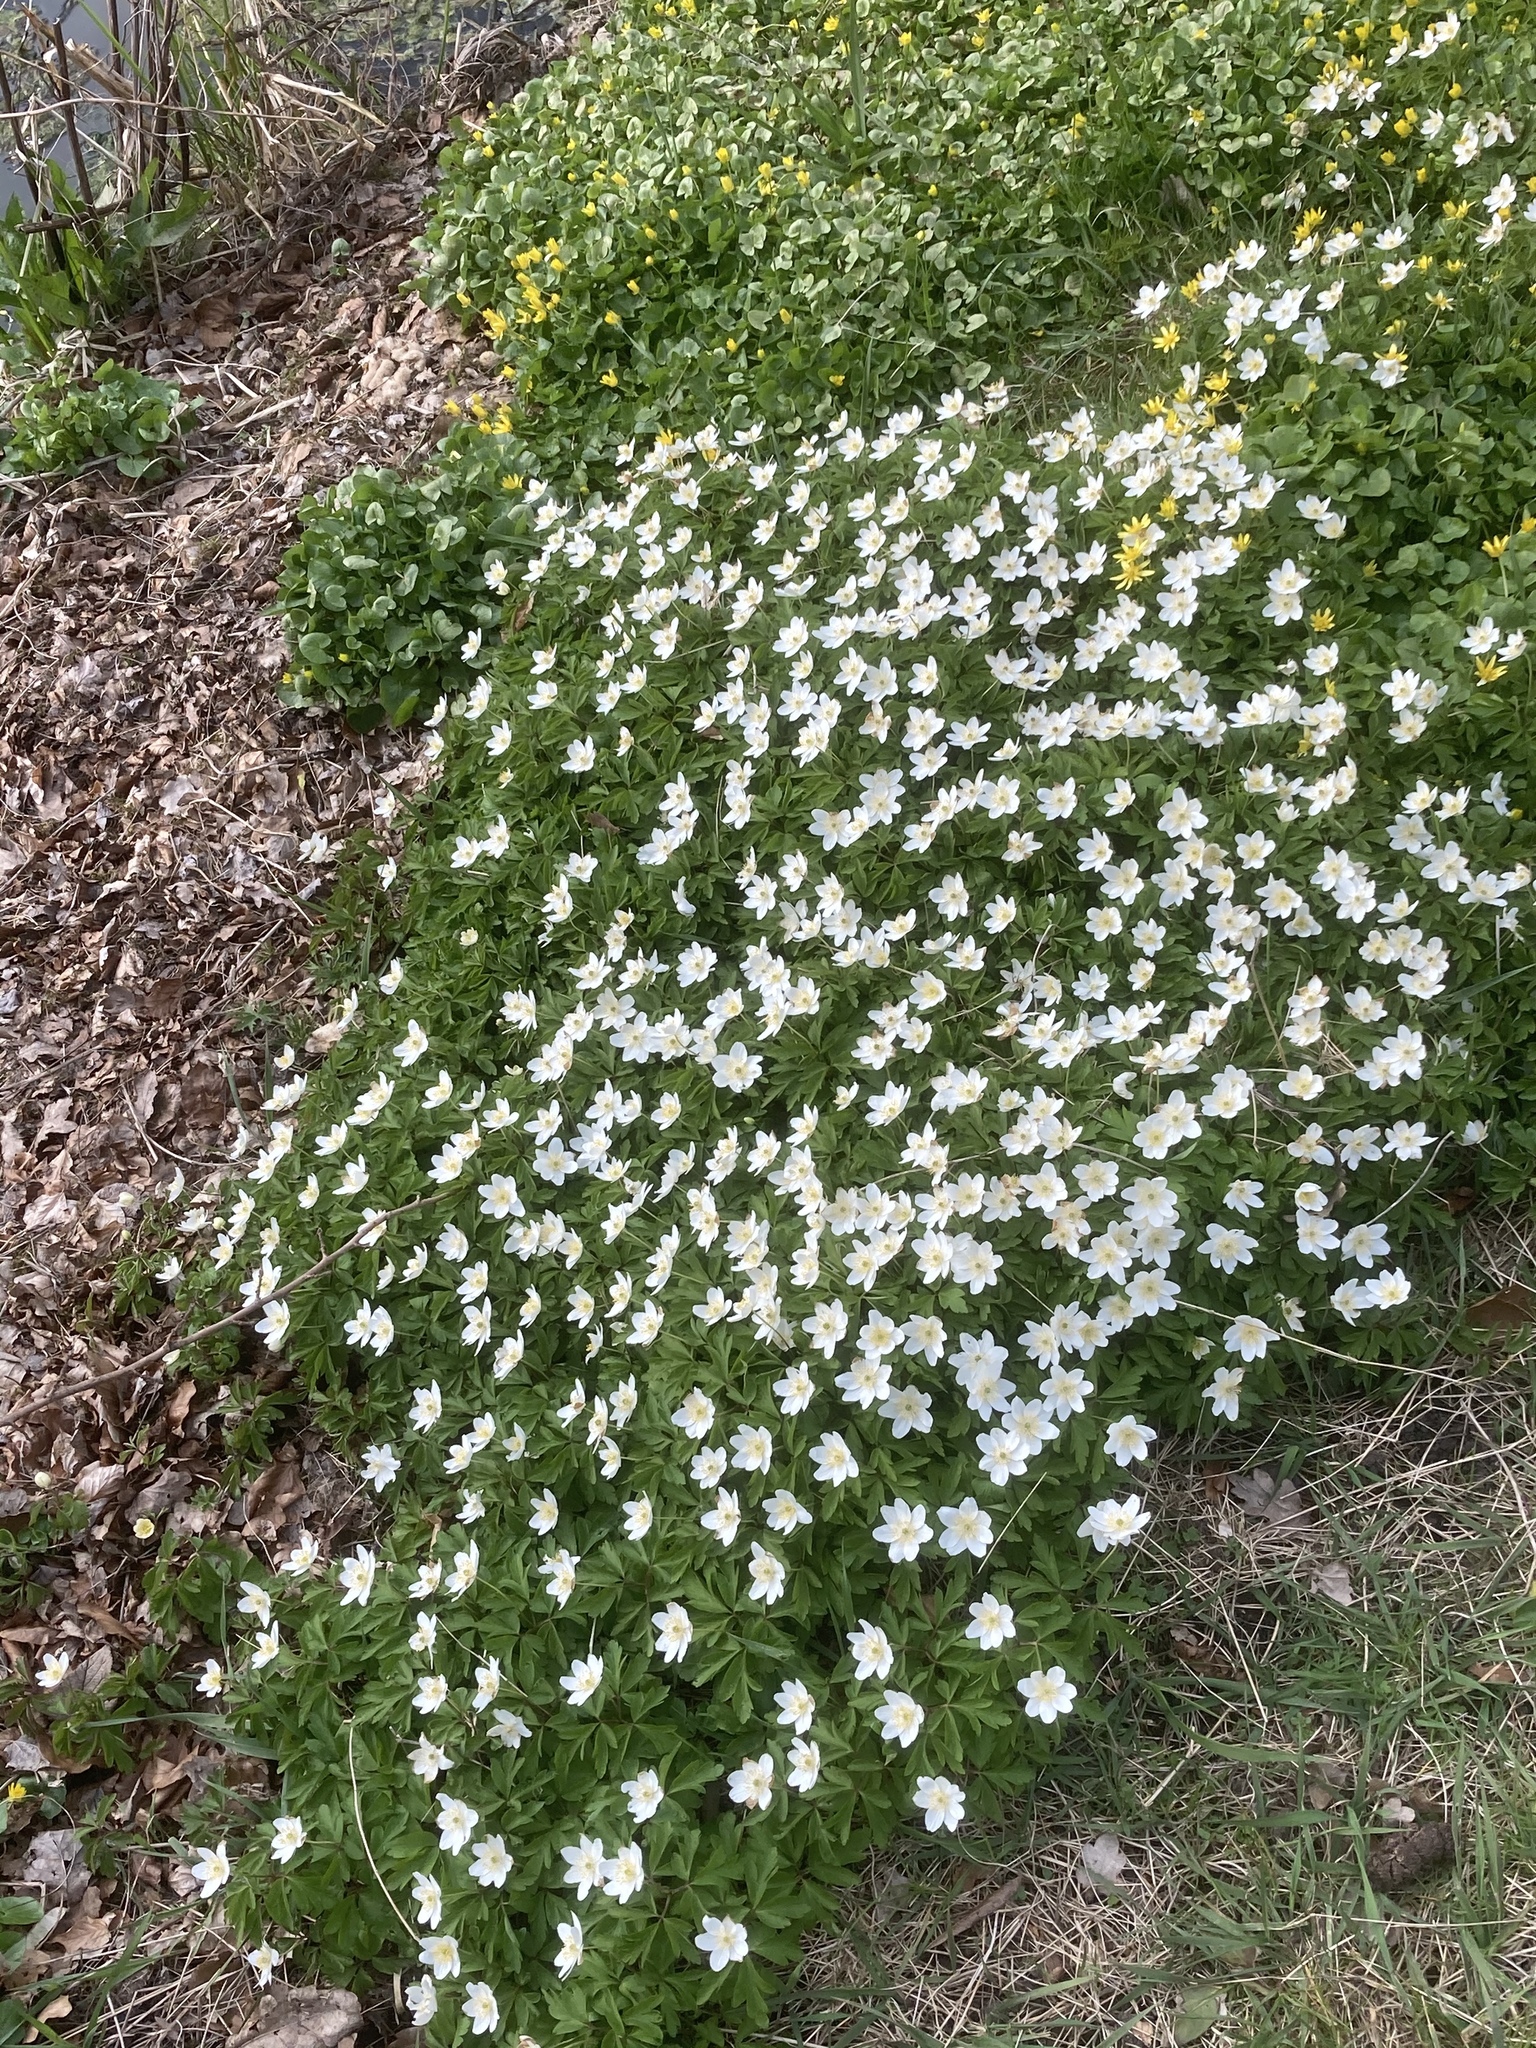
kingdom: Plantae
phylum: Tracheophyta
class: Magnoliopsida
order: Ranunculales
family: Ranunculaceae
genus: Anemone
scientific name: Anemone nemorosa
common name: Wood anemone
